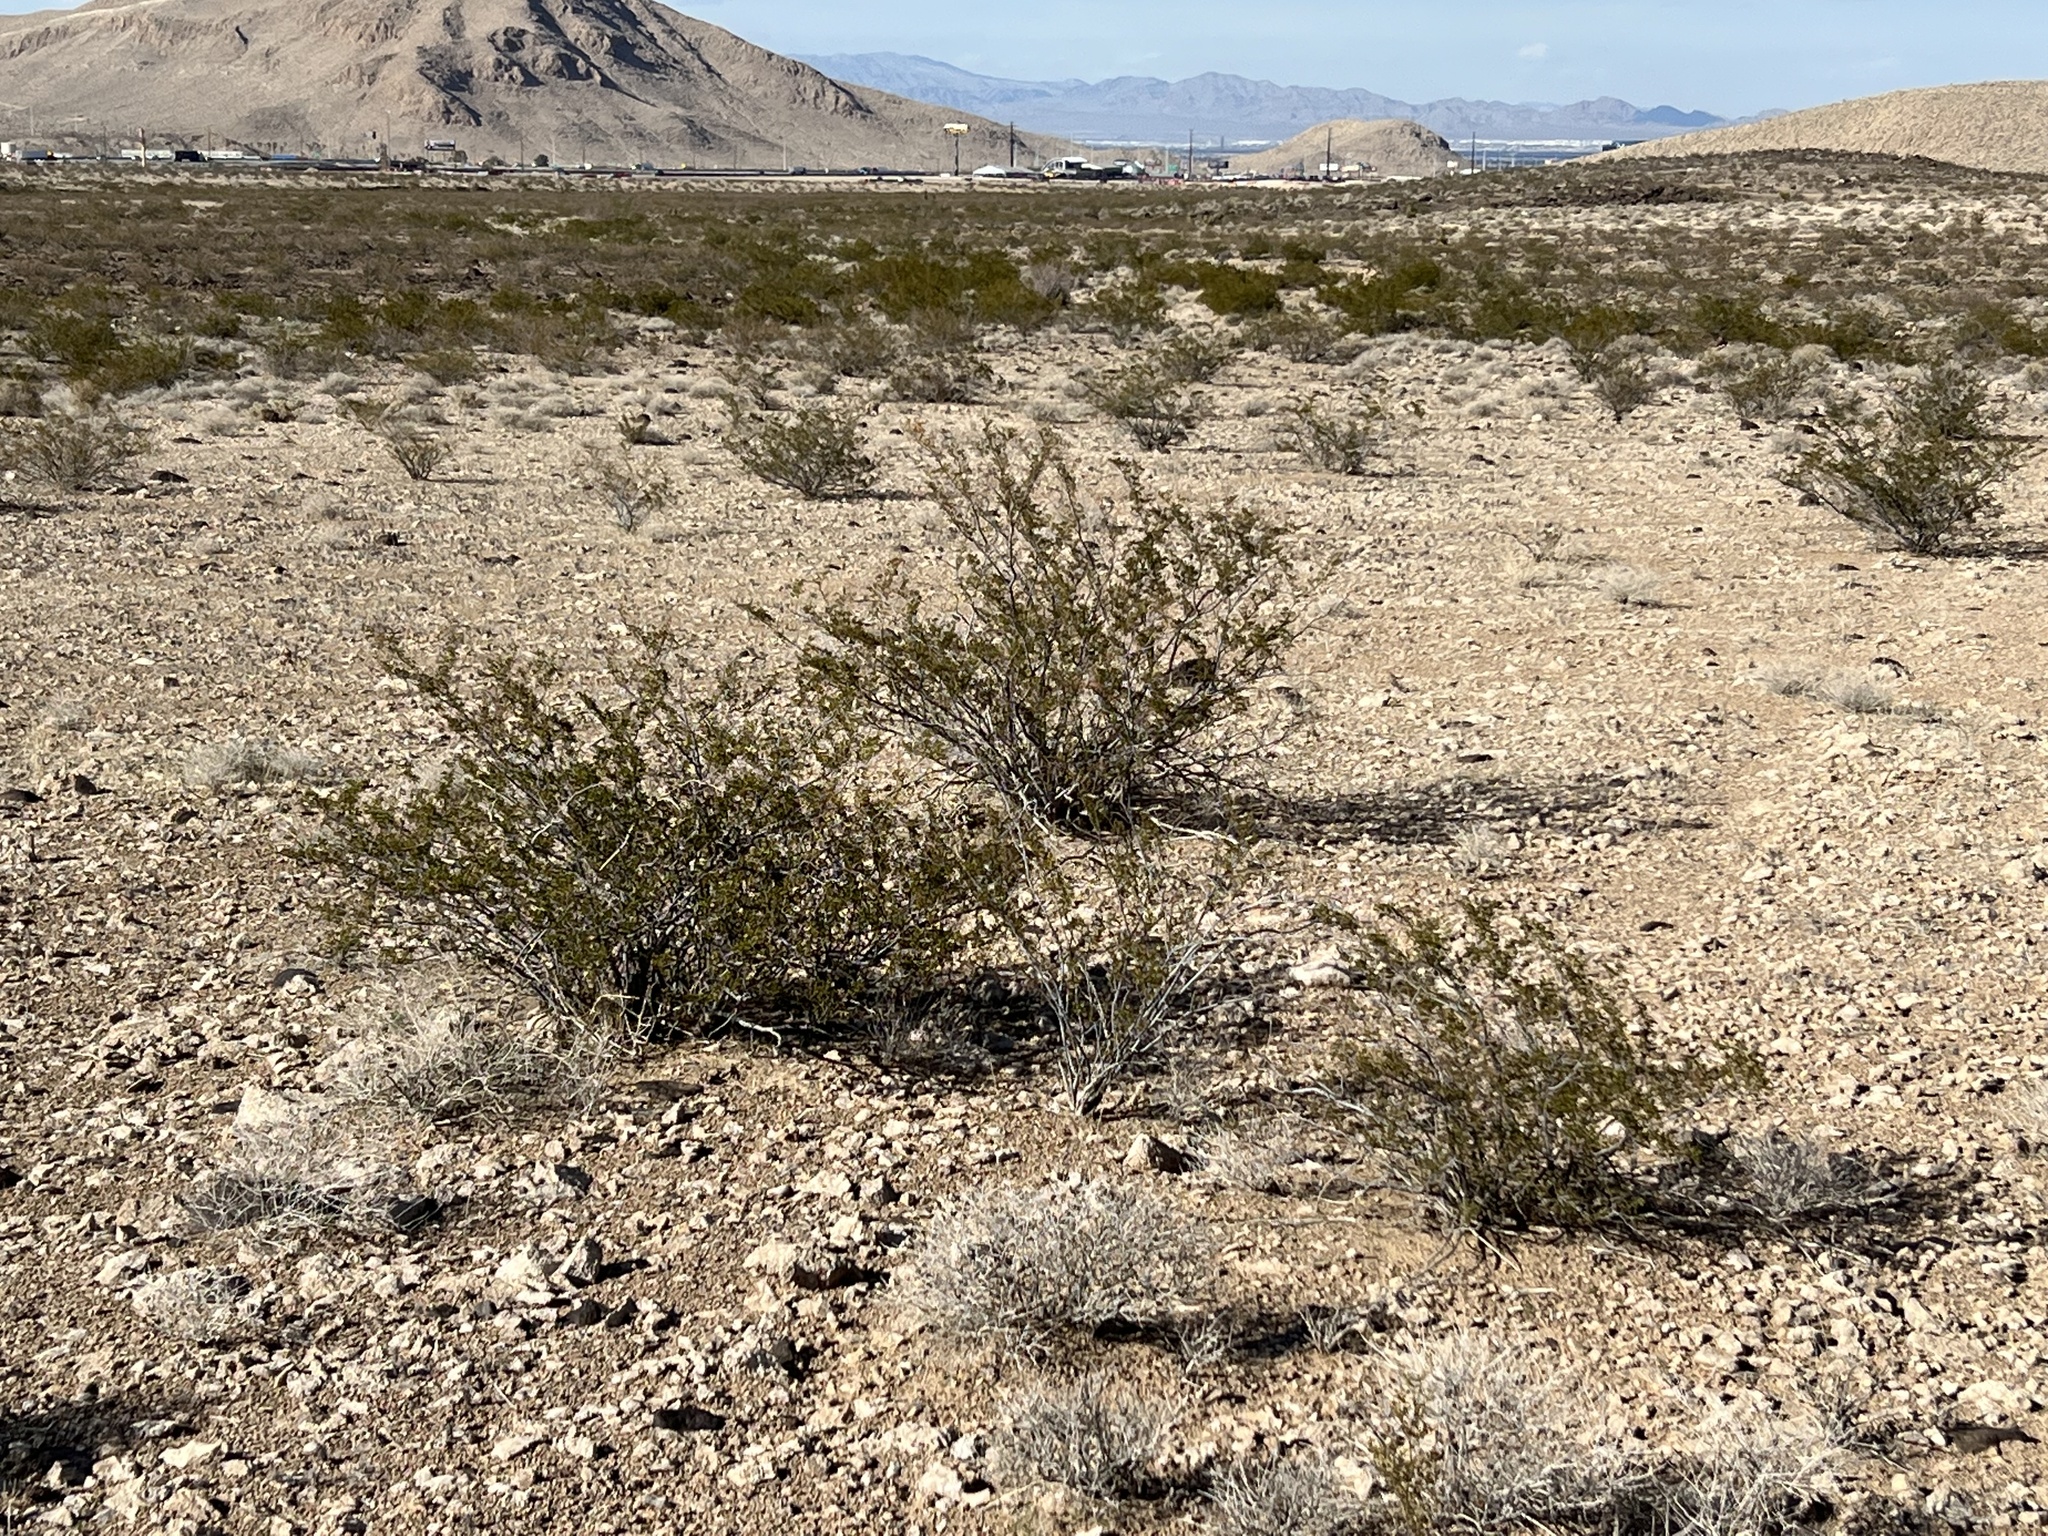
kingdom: Plantae
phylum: Tracheophyta
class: Magnoliopsida
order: Zygophyllales
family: Zygophyllaceae
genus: Larrea
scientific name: Larrea tridentata
